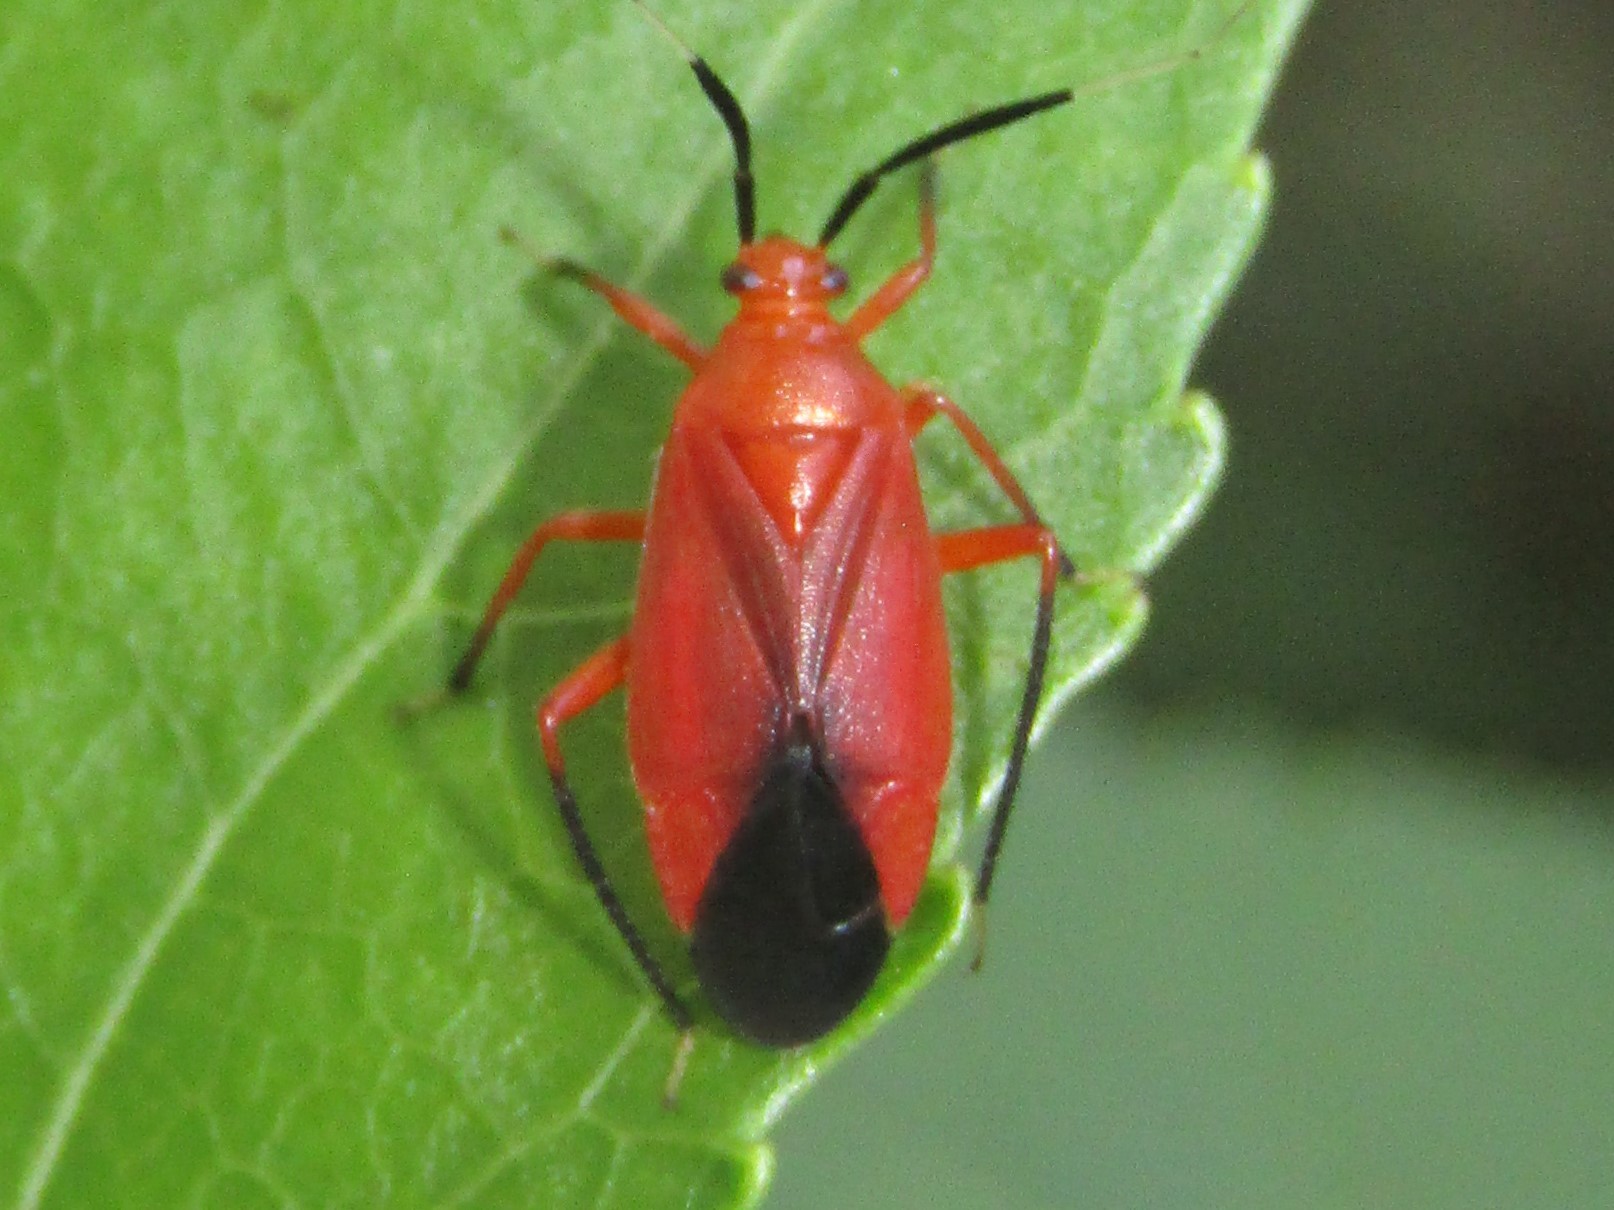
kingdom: Animalia
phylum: Arthropoda
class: Insecta
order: Hemiptera
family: Miridae
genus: Coccobaphes
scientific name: Coccobaphes frontifer
